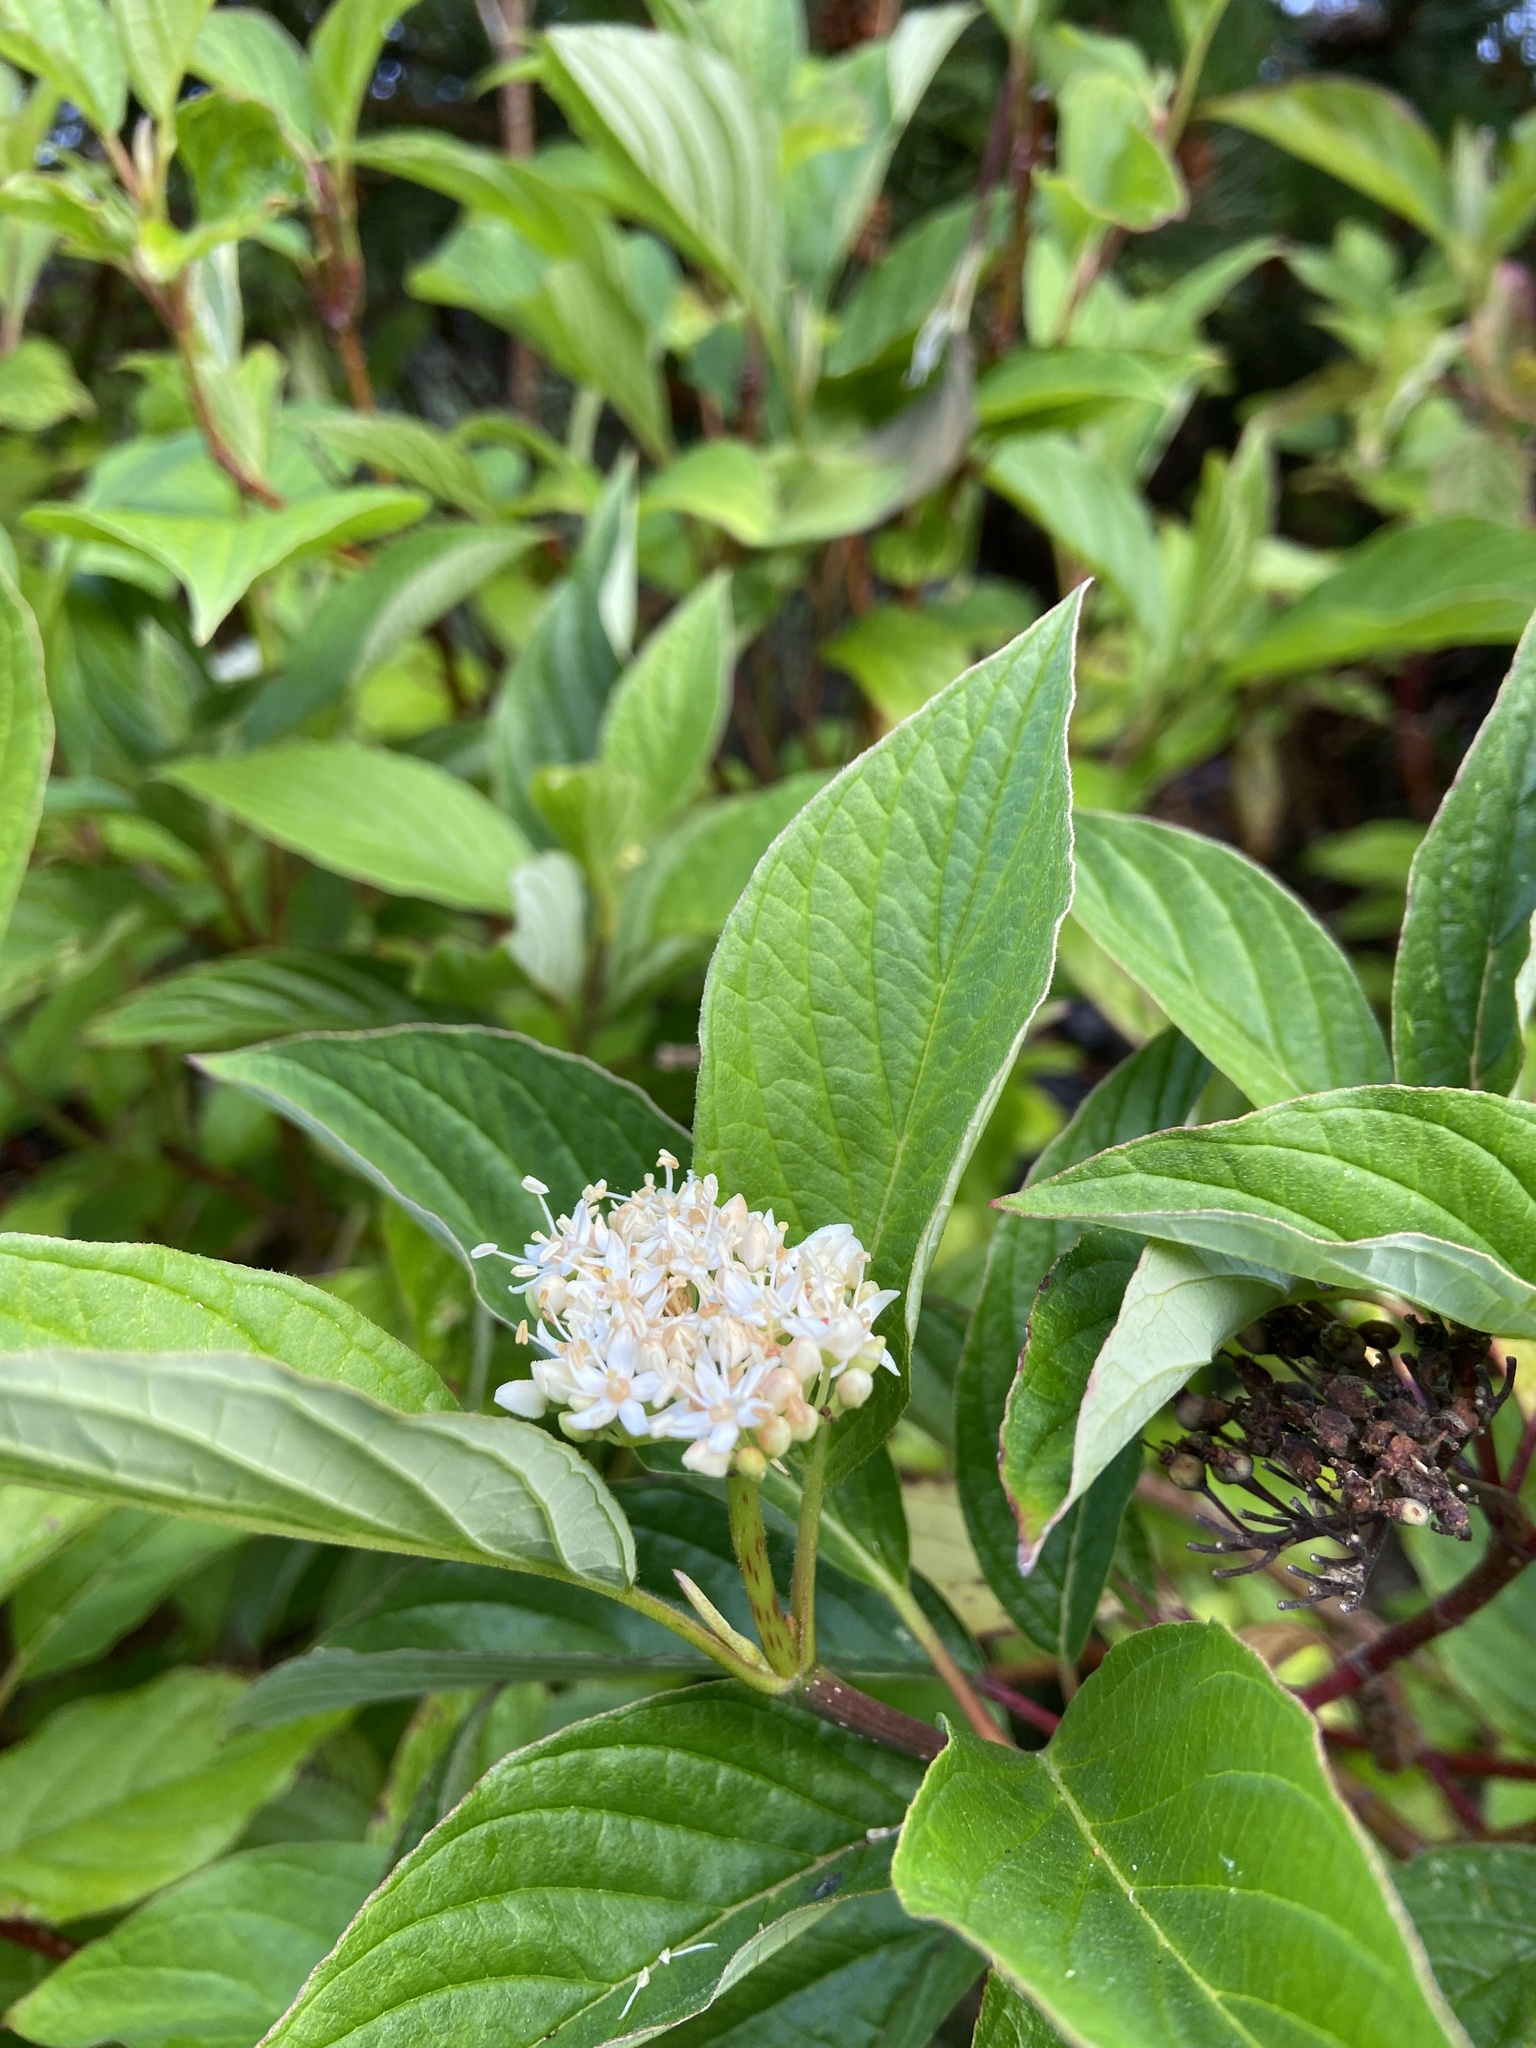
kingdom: Plantae
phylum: Tracheophyta
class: Magnoliopsida
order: Cornales
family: Cornaceae
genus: Cornus
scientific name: Cornus sericea
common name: Red-osier dogwood
